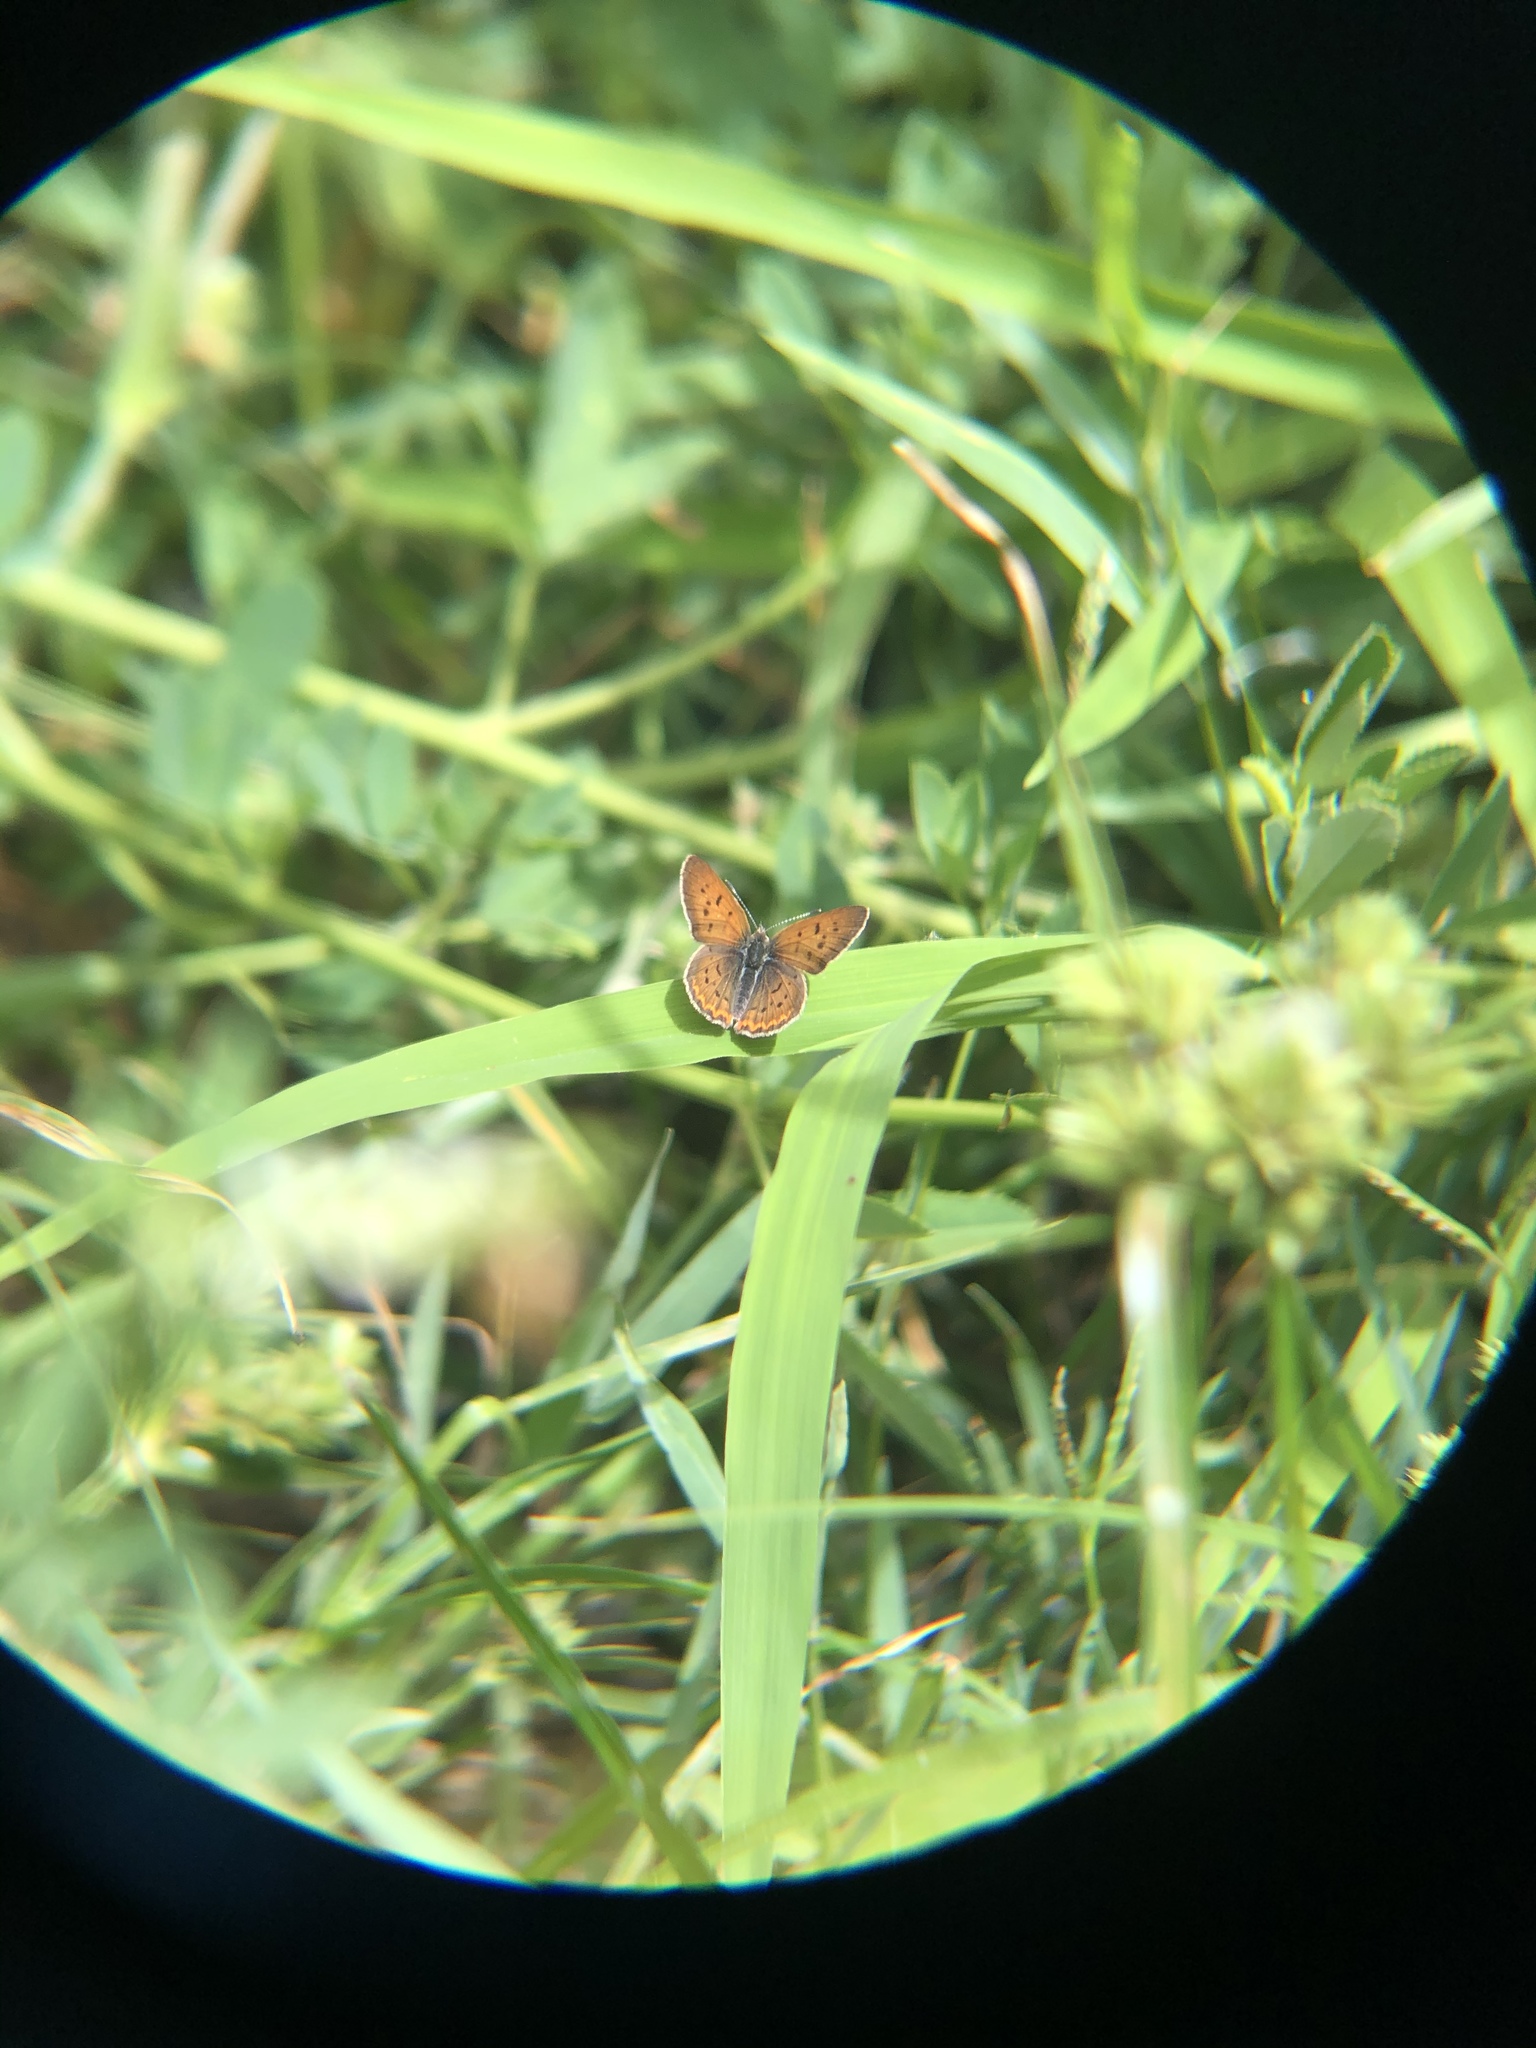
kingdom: Animalia
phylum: Arthropoda
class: Insecta
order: Lepidoptera
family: Lycaenidae
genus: Tharsalea
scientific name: Tharsalea helloides
